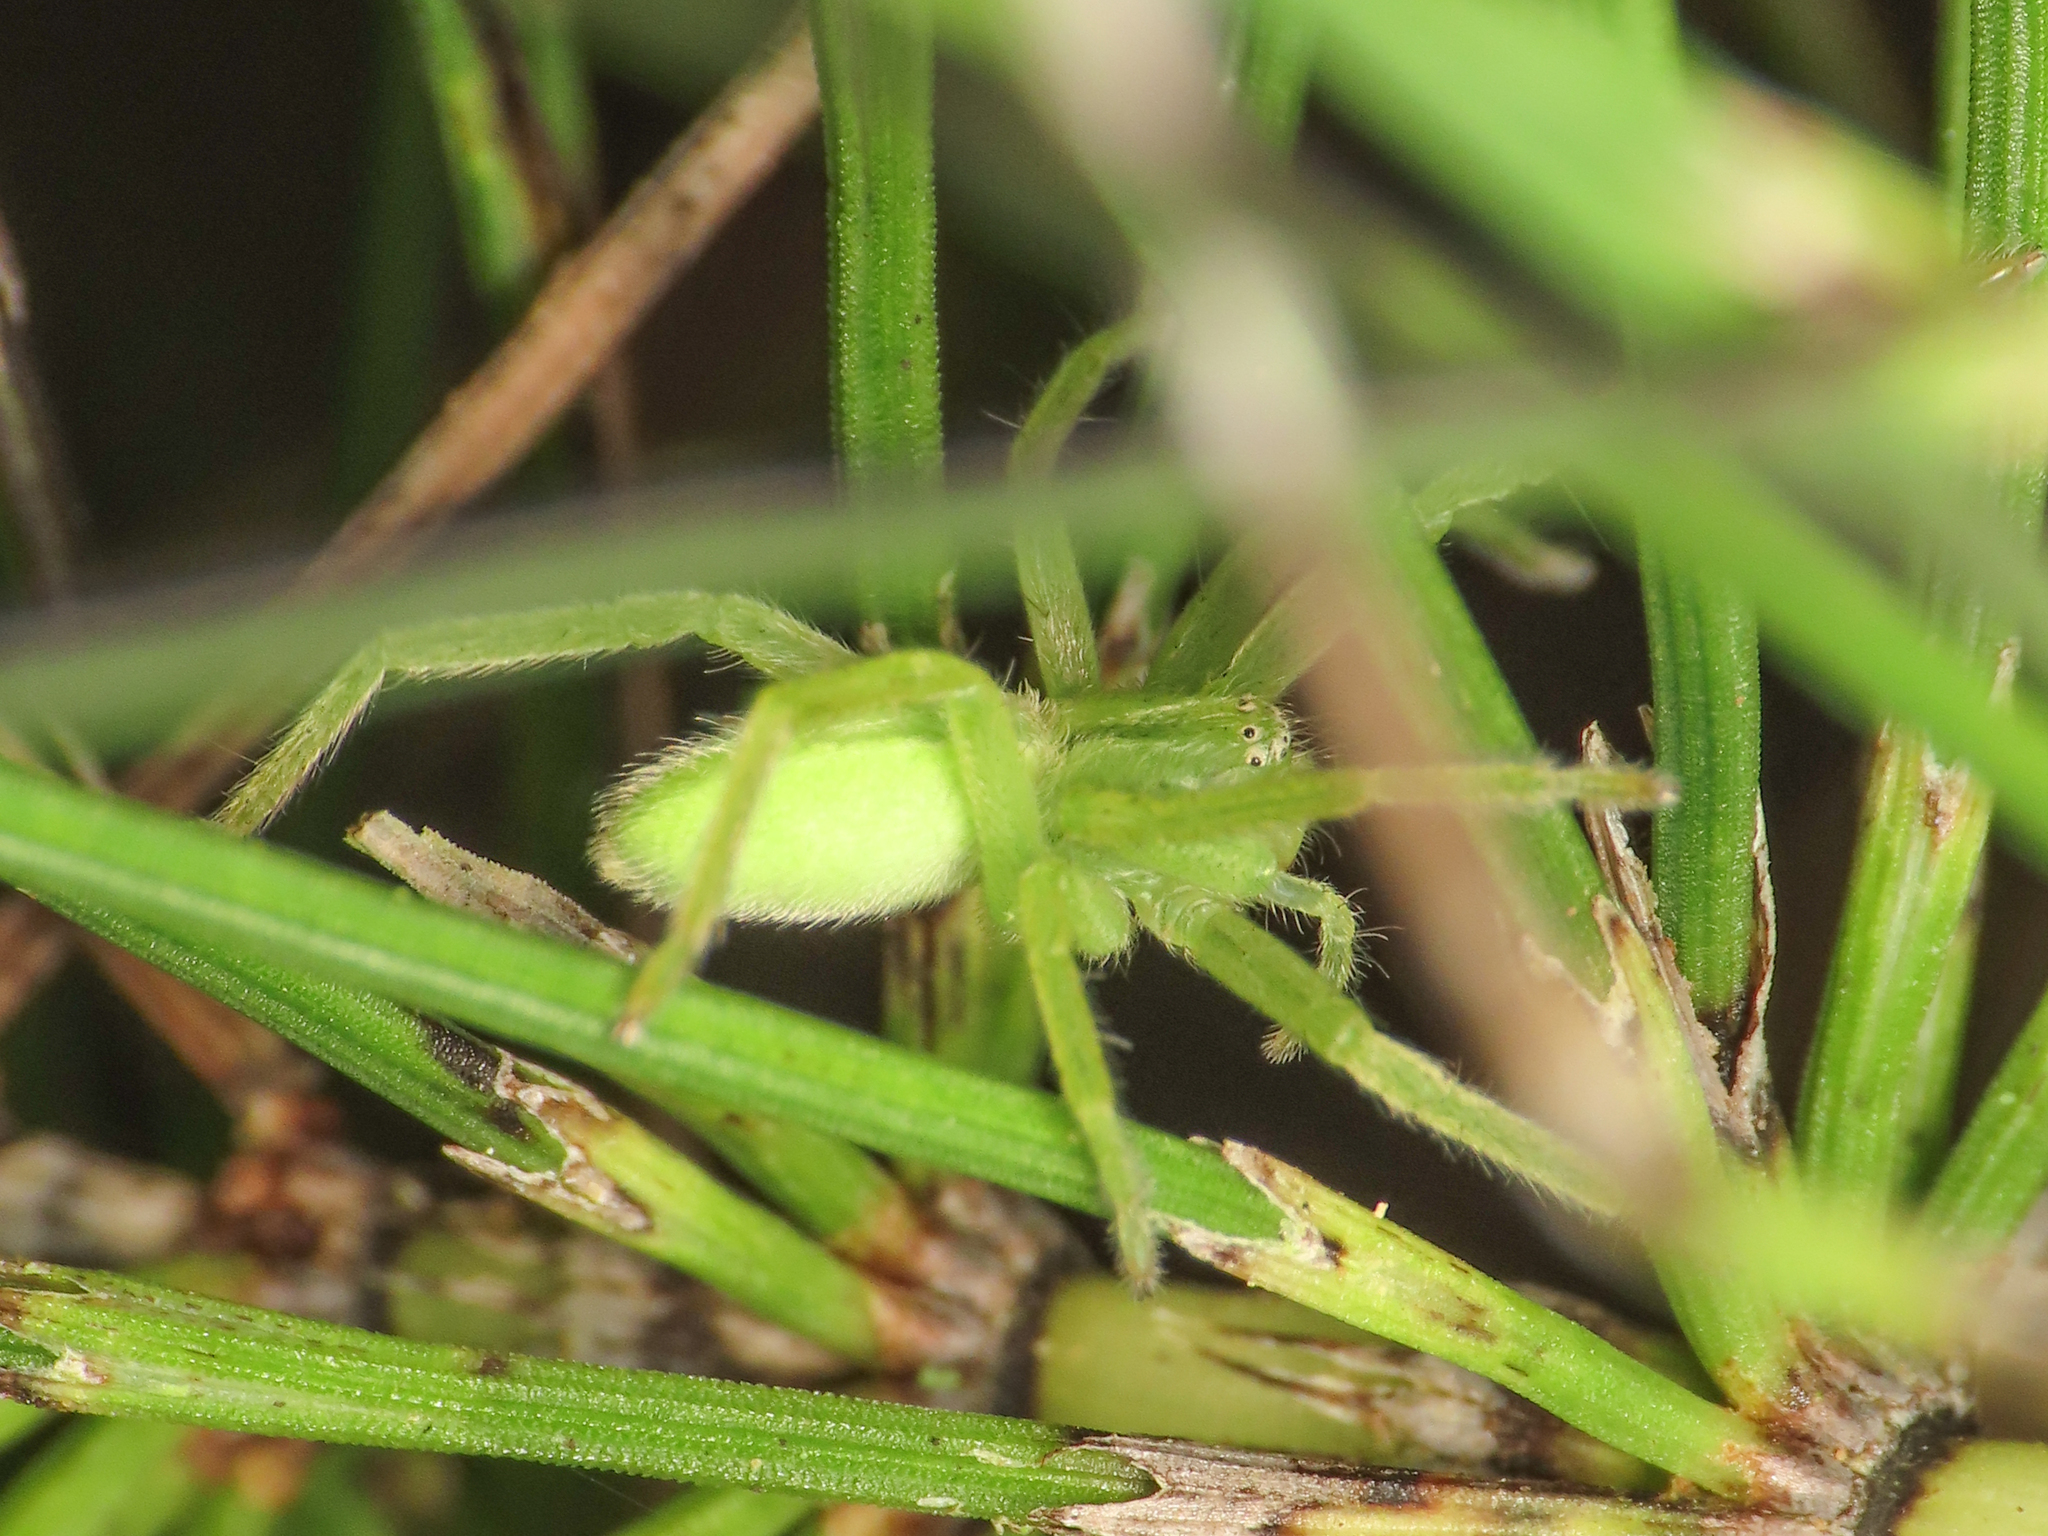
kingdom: Animalia
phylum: Arthropoda
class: Arachnida
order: Araneae
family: Sparassidae
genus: Micrommata
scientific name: Micrommata virescens
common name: Green spider
